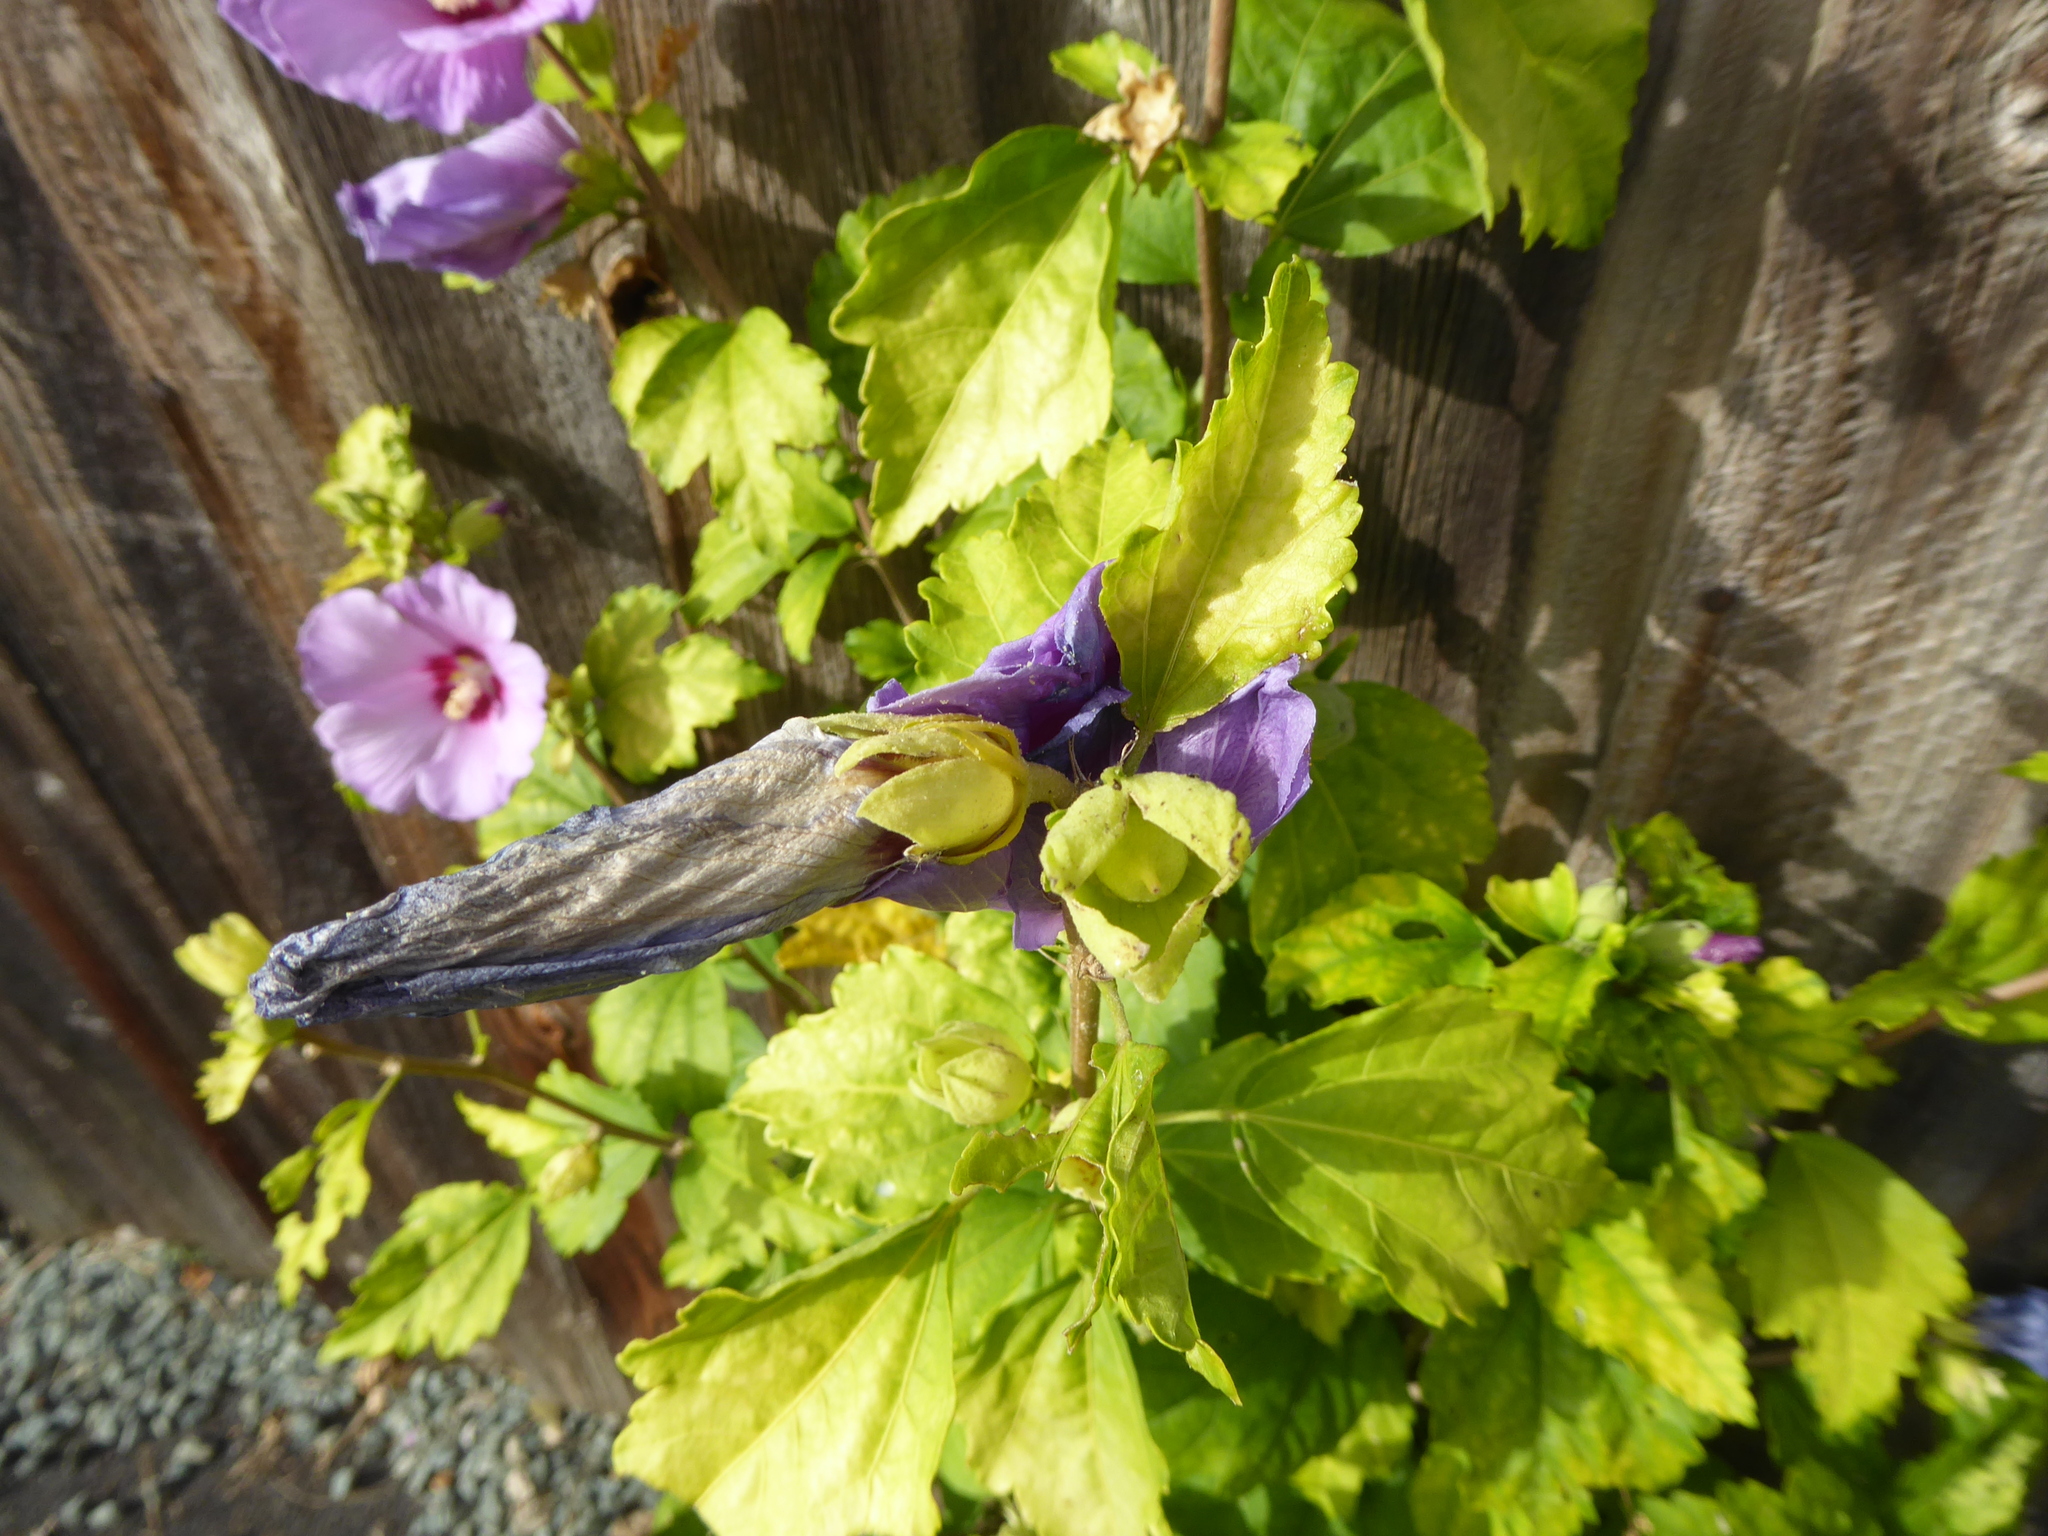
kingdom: Plantae
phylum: Tracheophyta
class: Magnoliopsida
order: Malvales
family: Malvaceae
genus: Hibiscus
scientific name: Hibiscus syriacus
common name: Syrian ketmia
